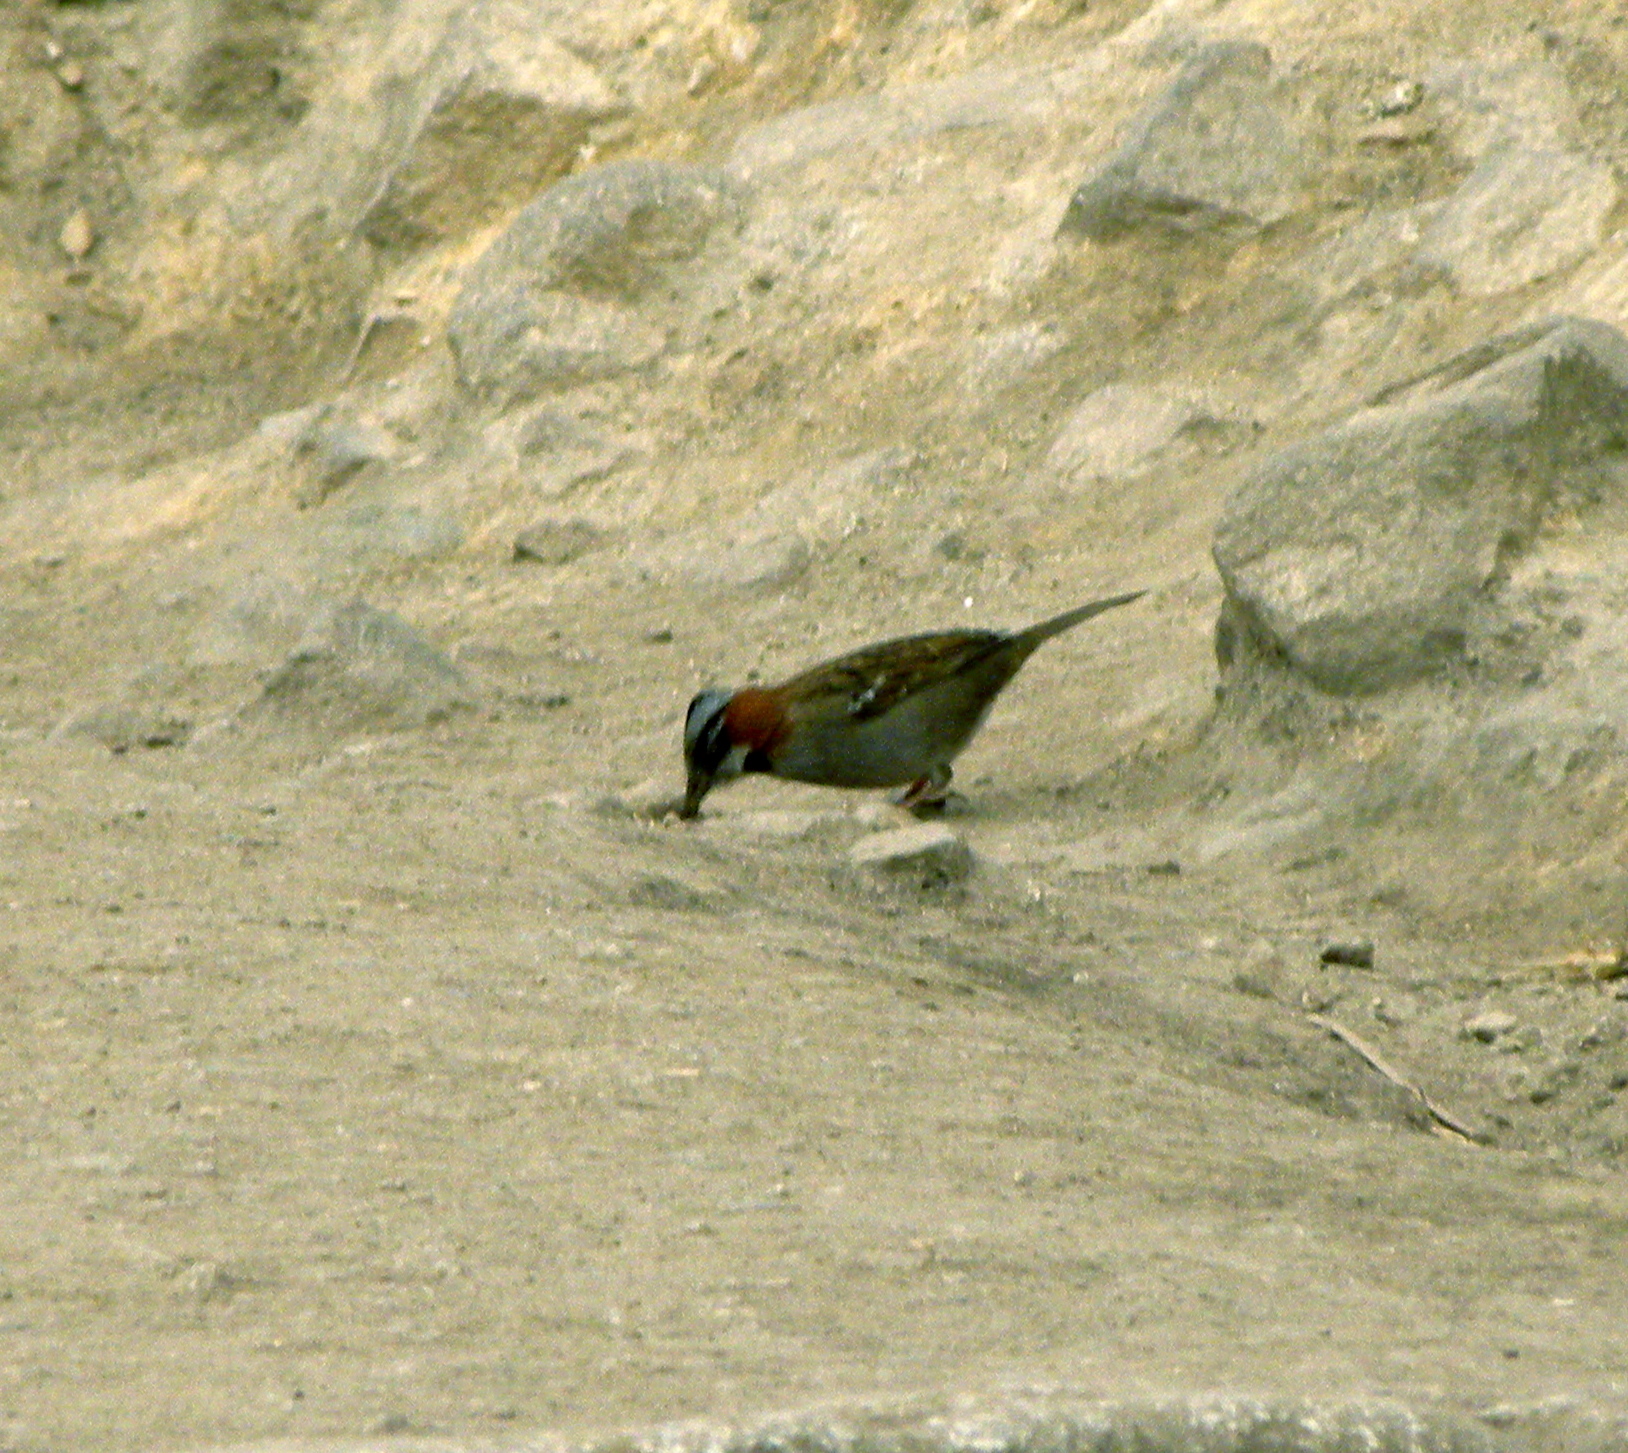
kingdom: Animalia
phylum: Chordata
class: Aves
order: Passeriformes
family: Passerellidae
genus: Zonotrichia
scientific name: Zonotrichia capensis
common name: Rufous-collared sparrow
